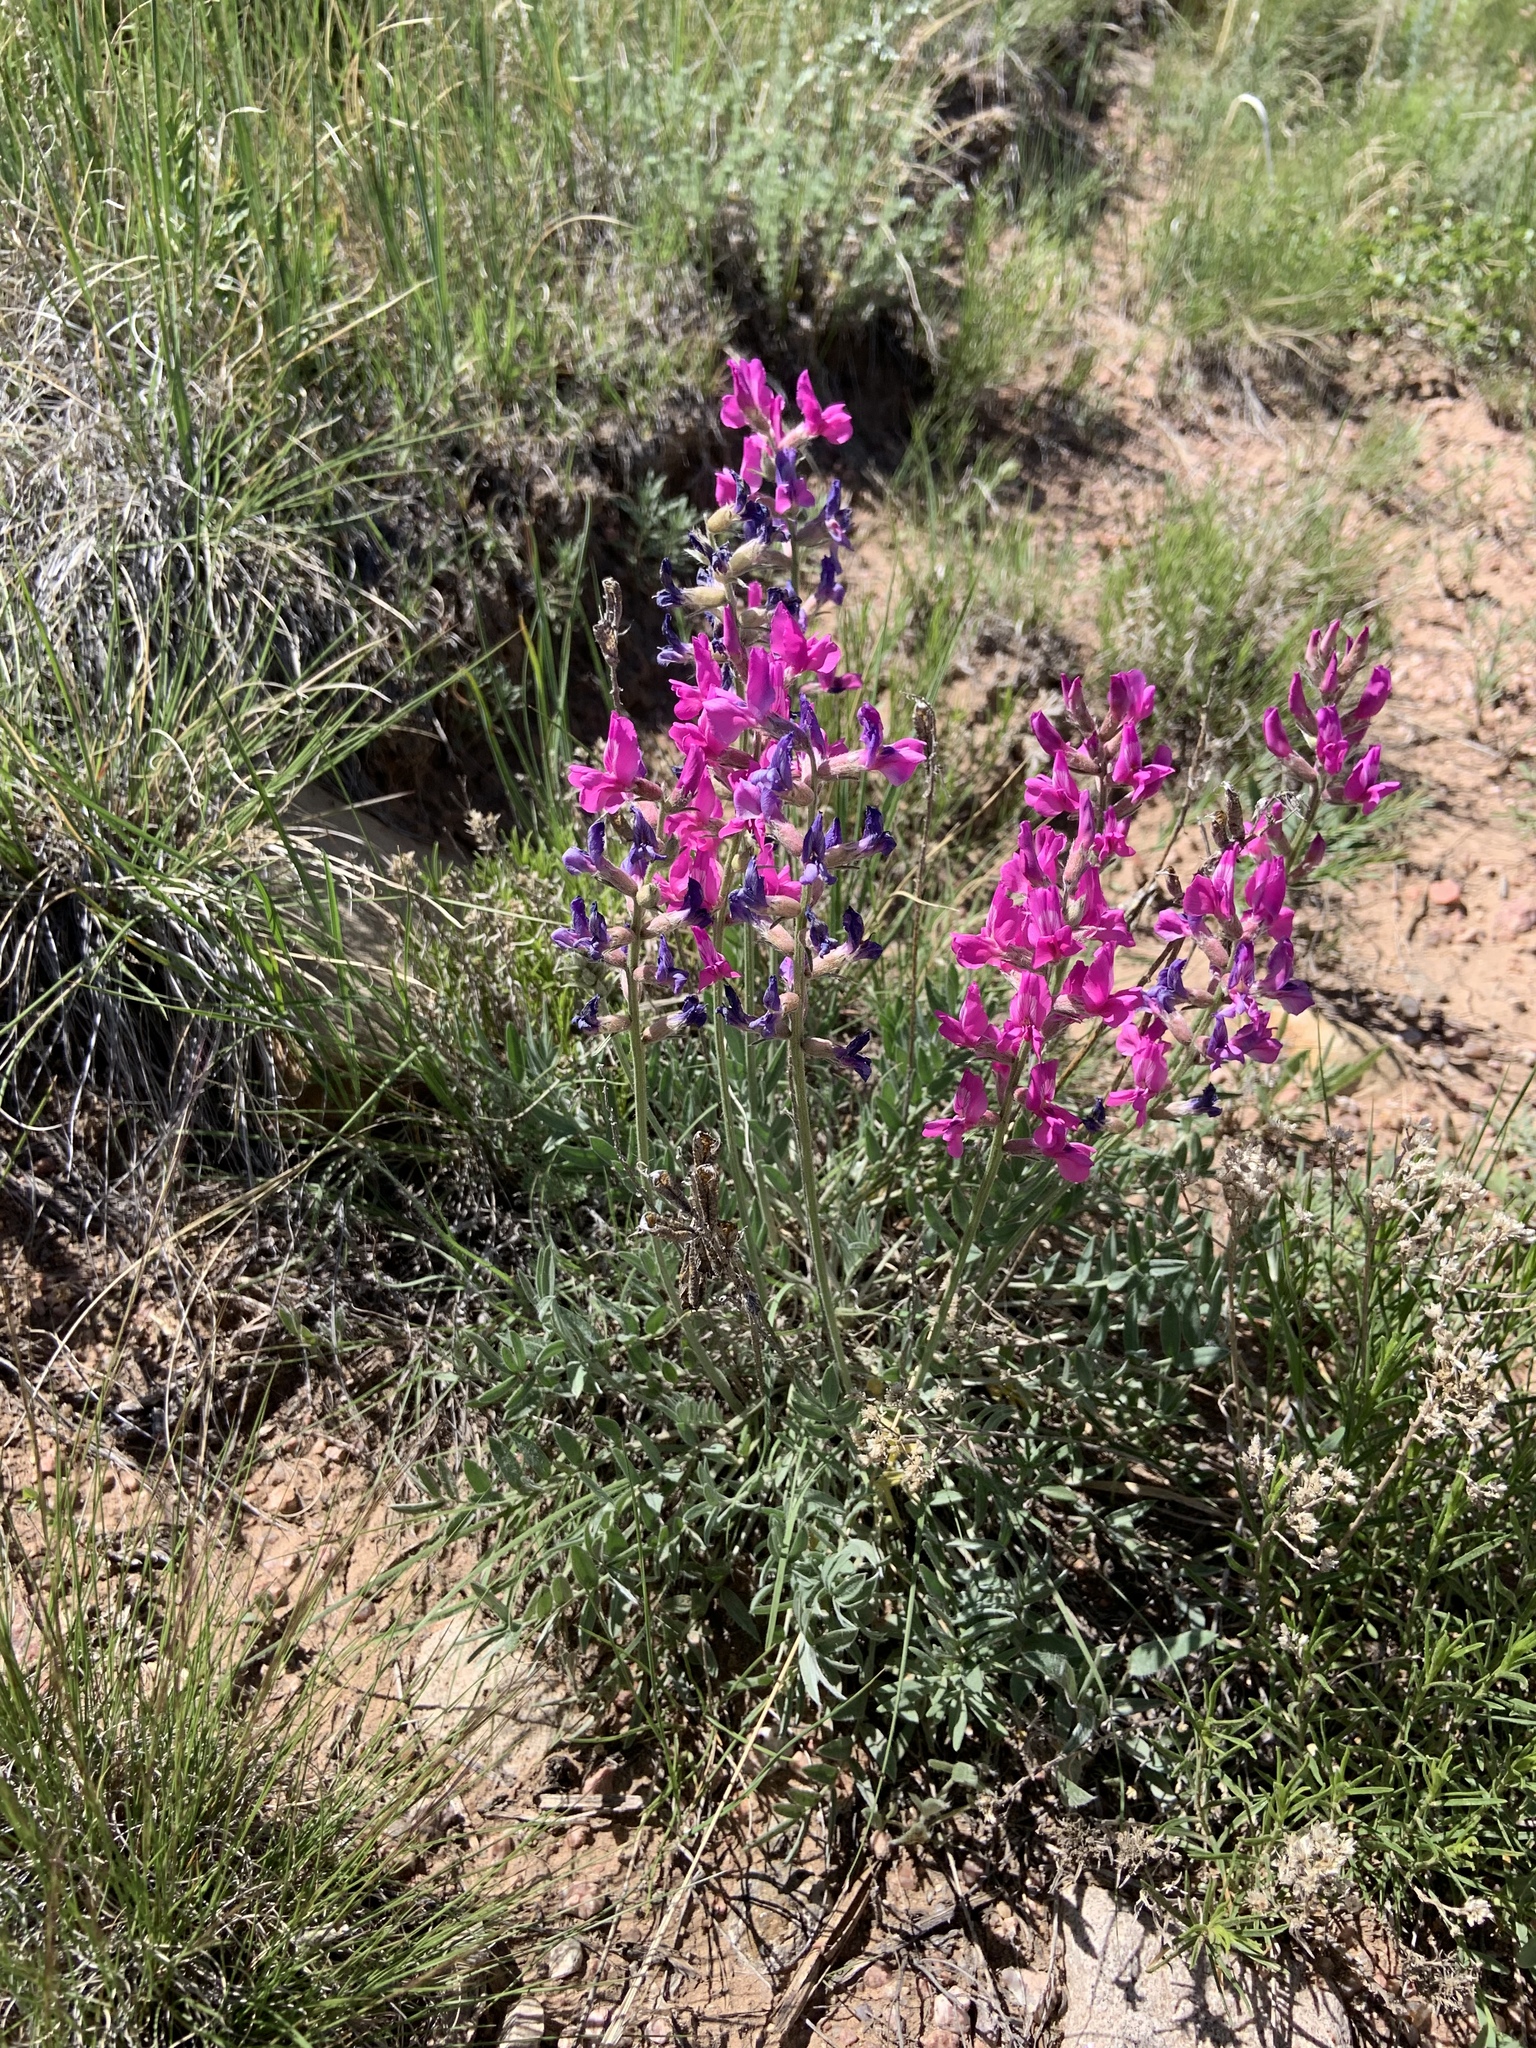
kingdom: Plantae
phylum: Tracheophyta
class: Magnoliopsida
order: Fabales
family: Fabaceae
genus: Oxytropis
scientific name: Oxytropis lambertii
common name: Purple locoweed
